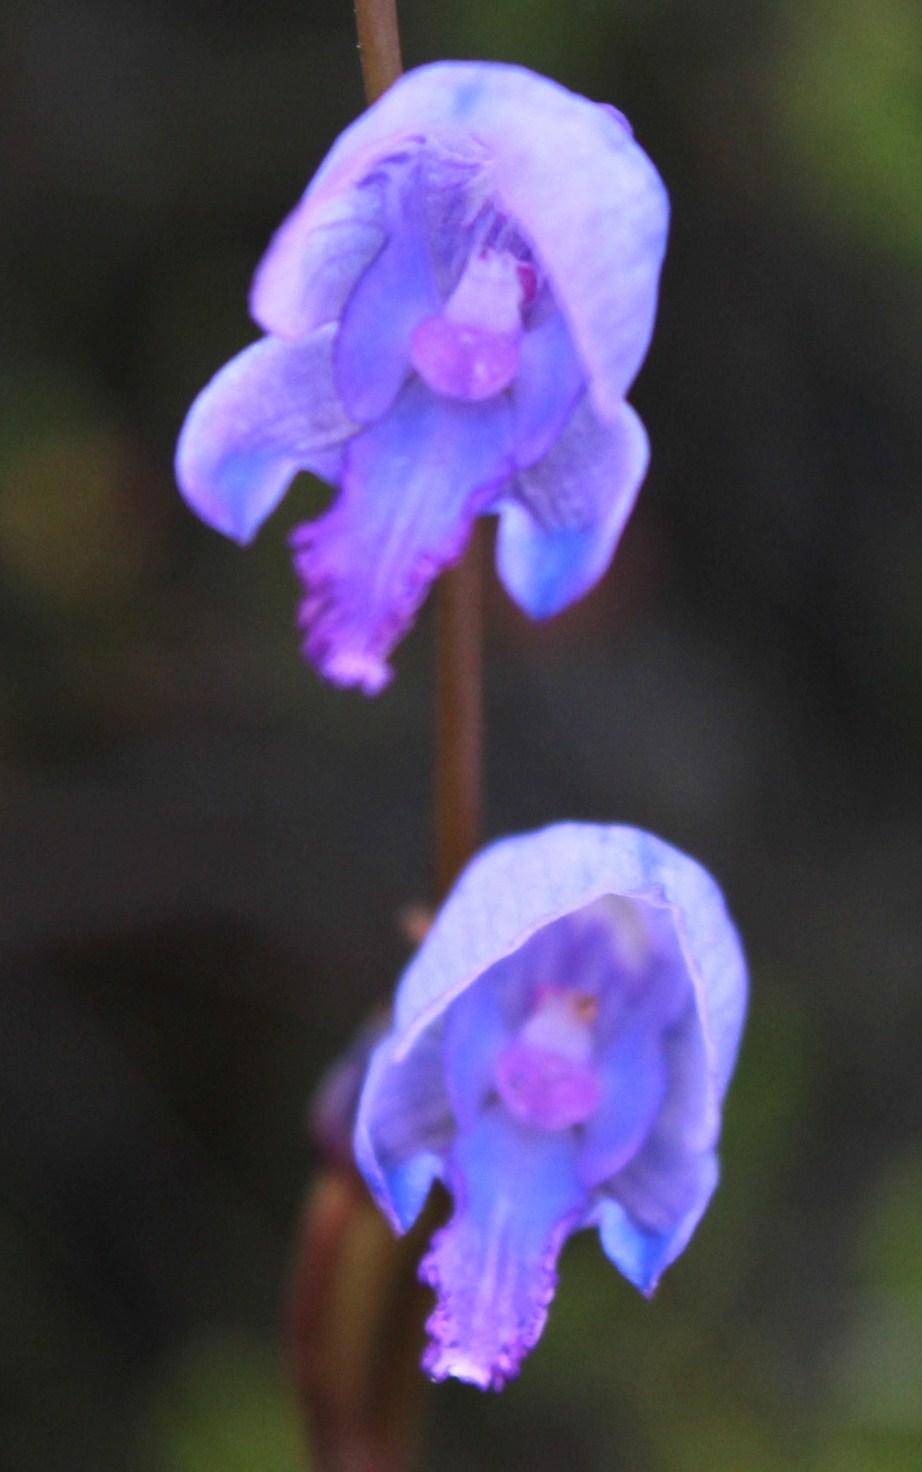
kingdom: Plantae
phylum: Tracheophyta
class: Liliopsida
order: Asparagales
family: Orchidaceae
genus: Disa
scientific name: Disa hians
